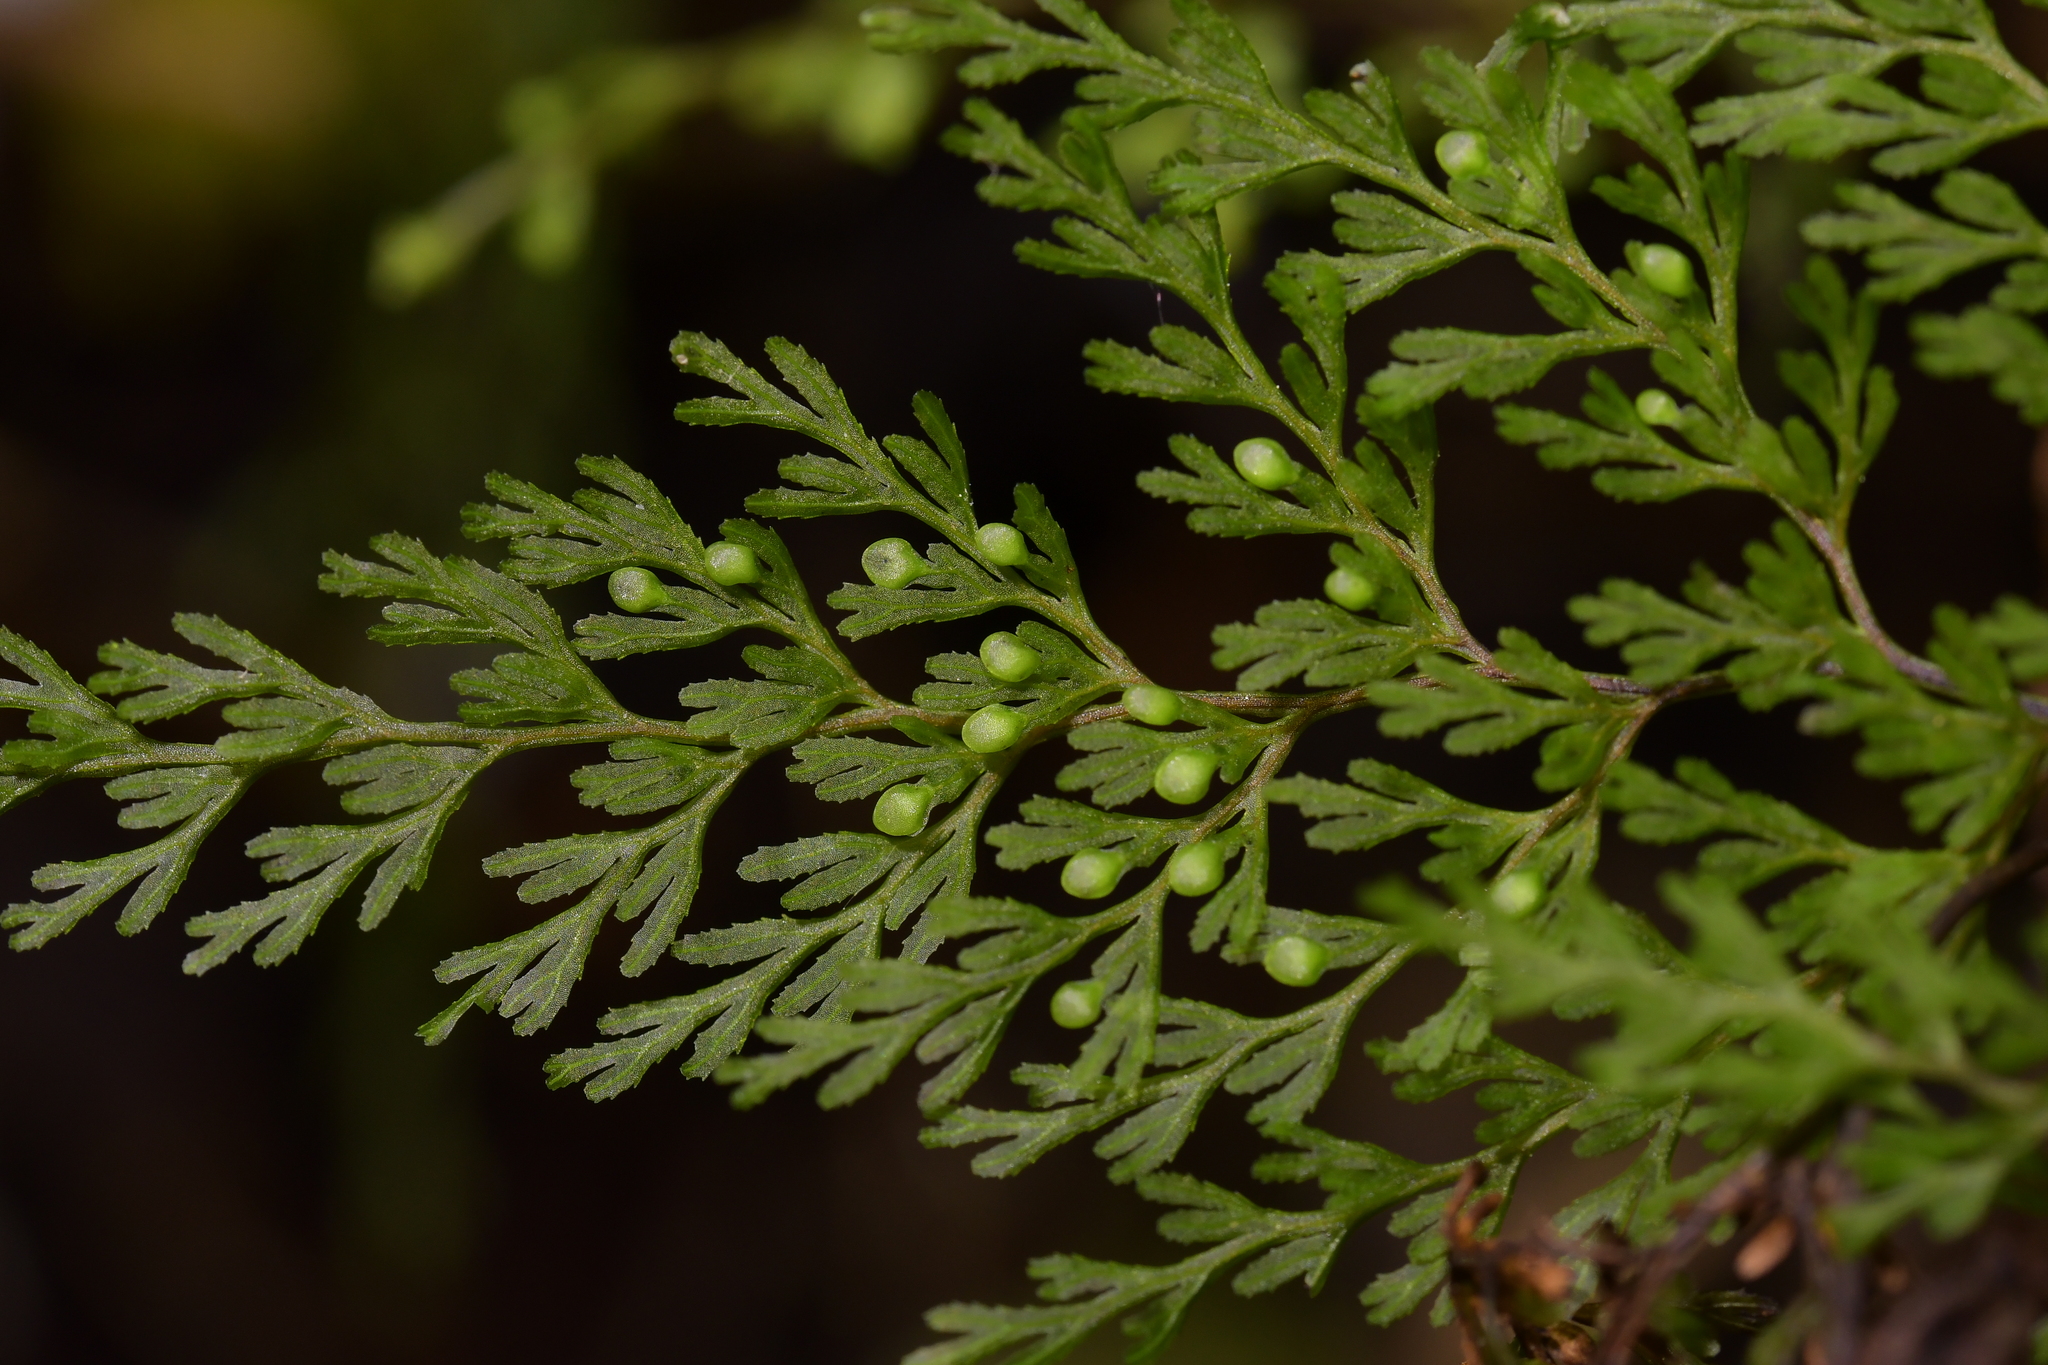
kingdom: Plantae
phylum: Tracheophyta
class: Polypodiopsida
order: Hymenophyllales
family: Hymenophyllaceae
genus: Hymenophyllum
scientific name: Hymenophyllum bivalve
